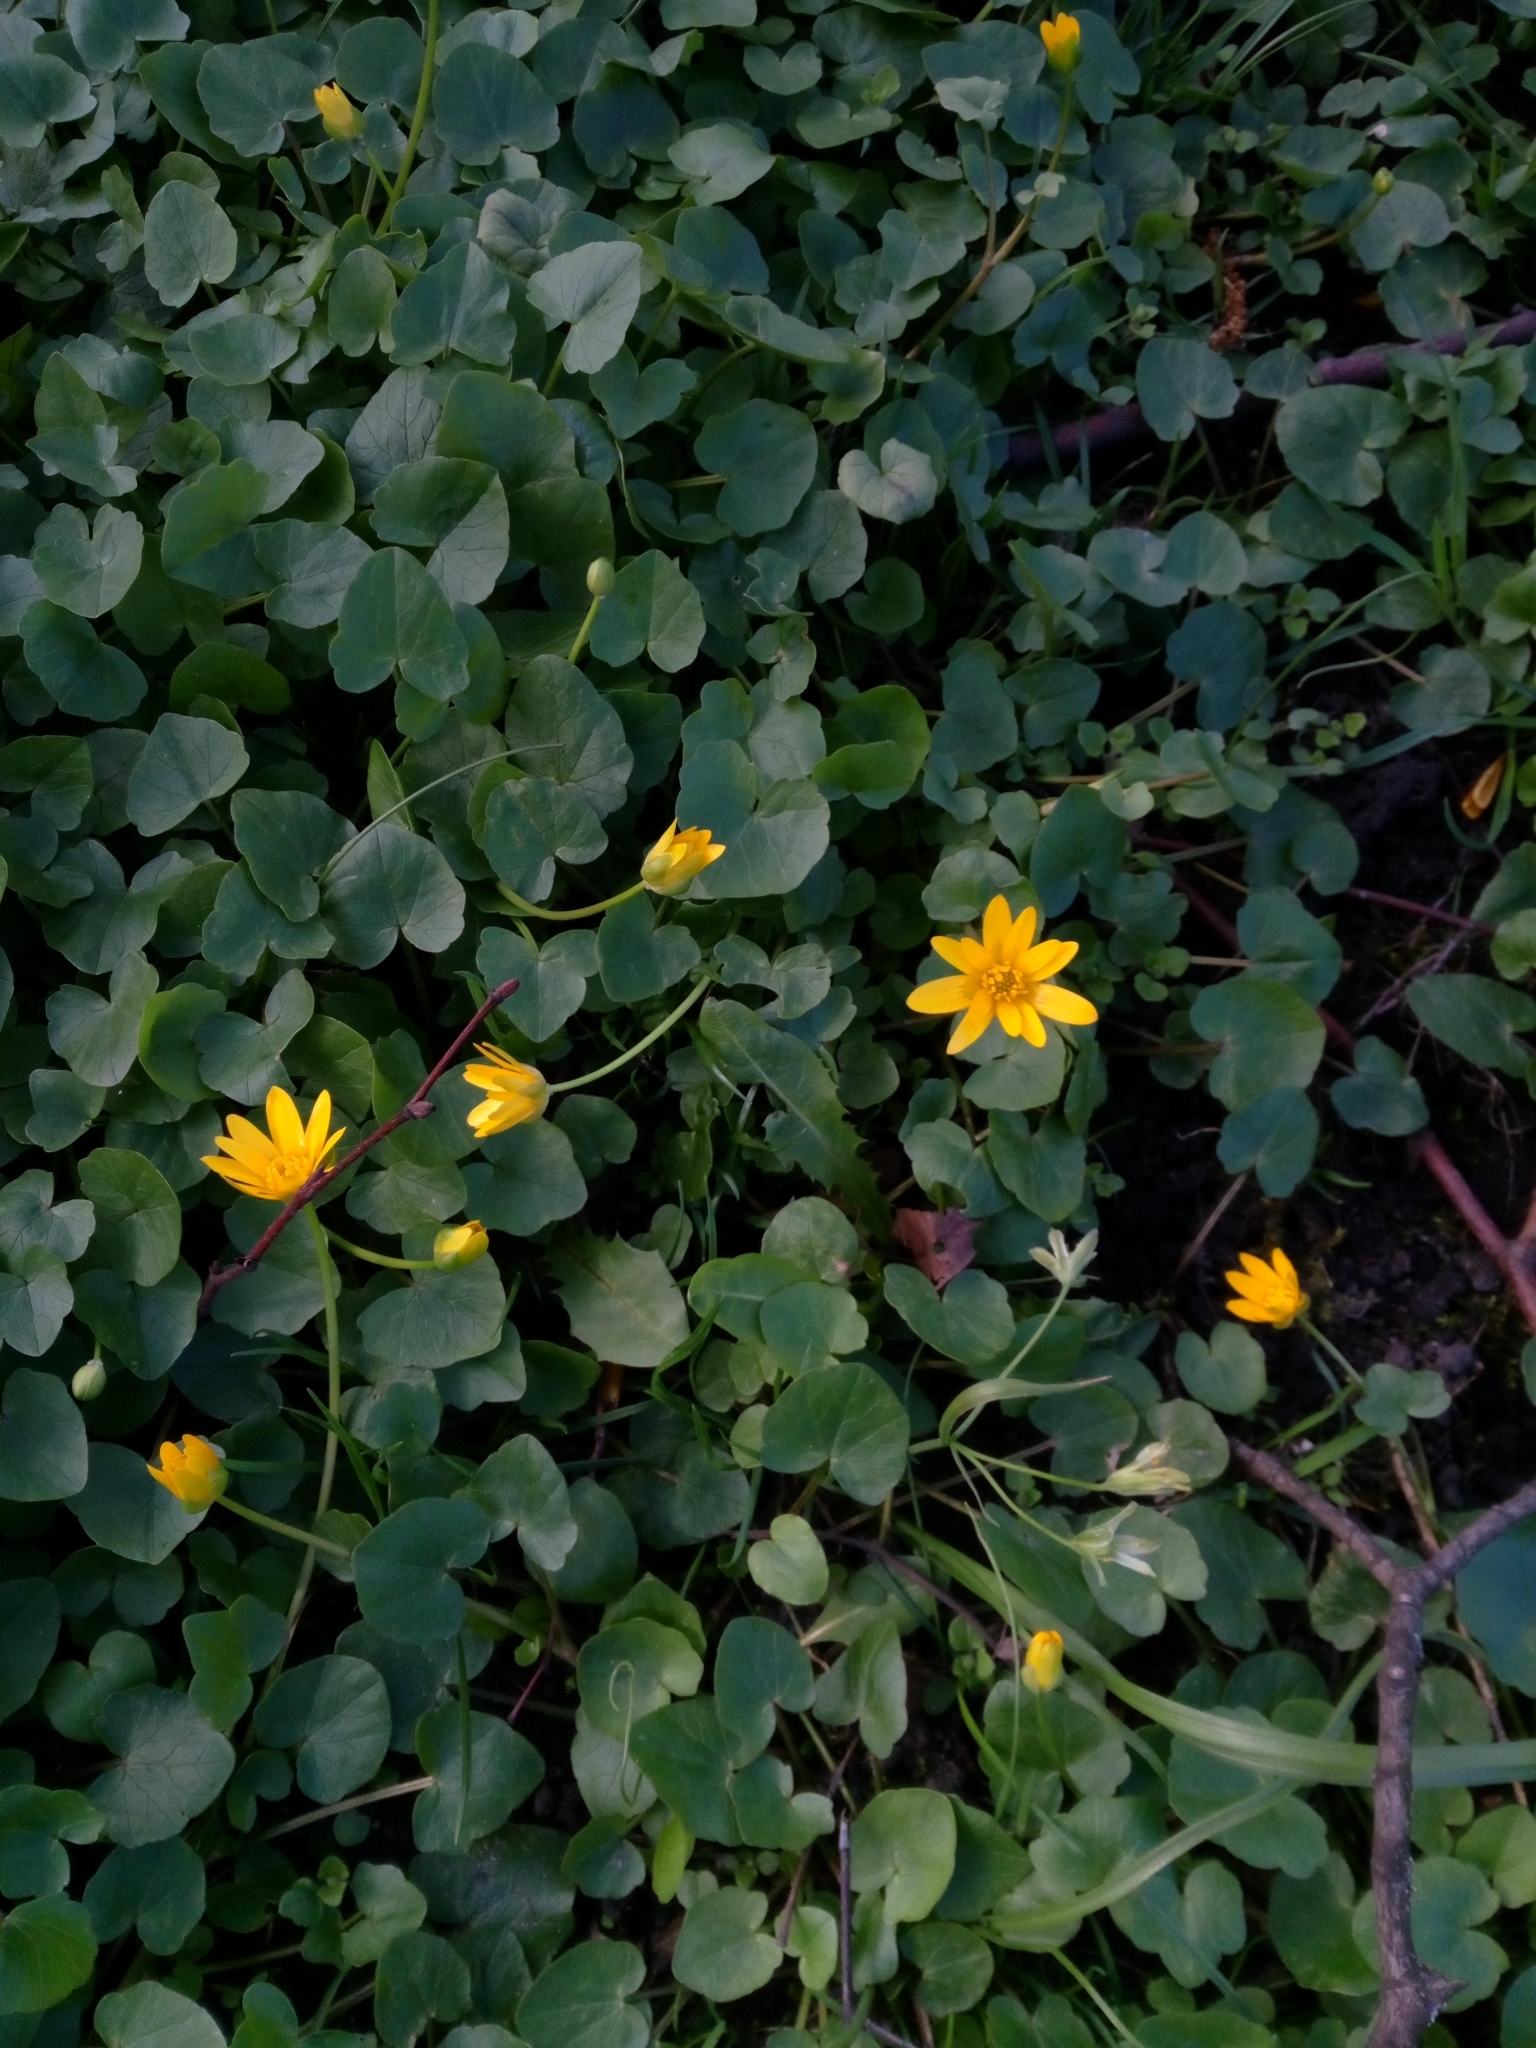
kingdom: Plantae
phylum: Tracheophyta
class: Magnoliopsida
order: Ranunculales
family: Ranunculaceae
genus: Ficaria
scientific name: Ficaria verna
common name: Lesser celandine
